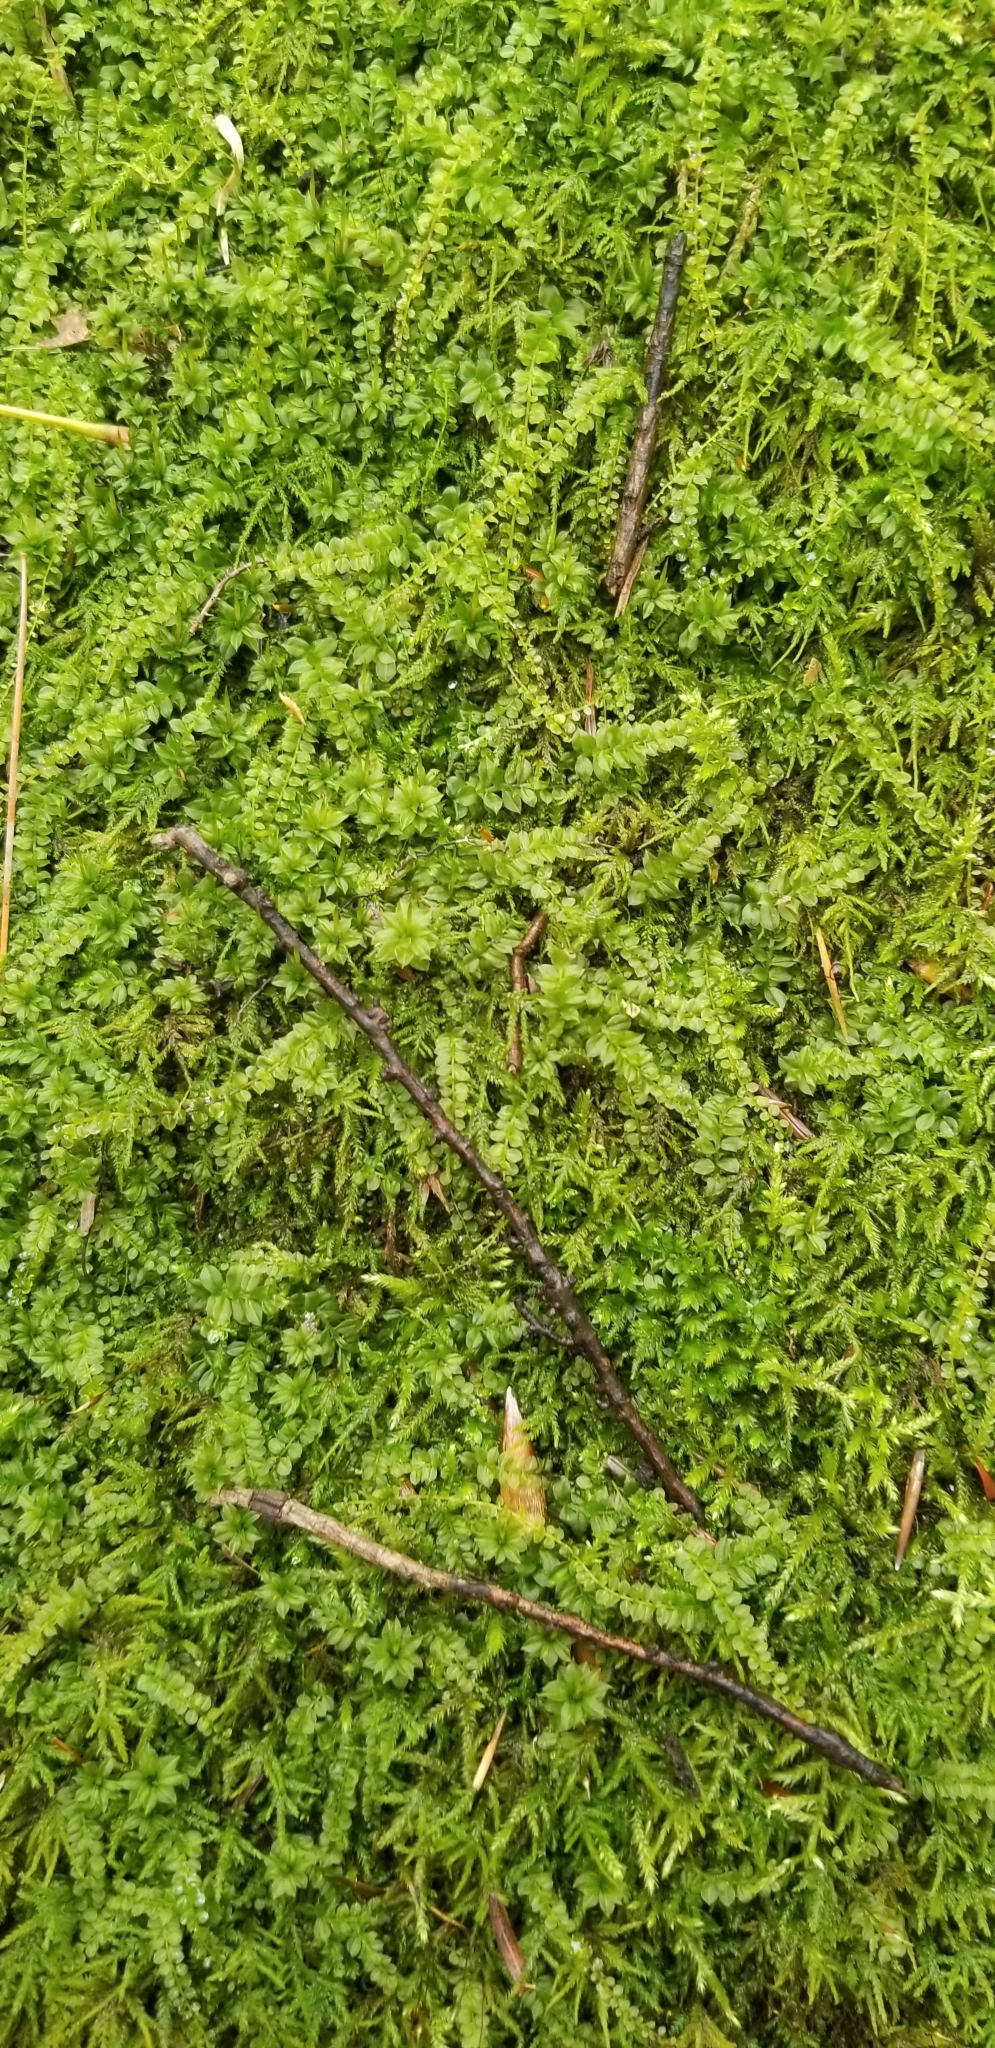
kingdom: Plantae
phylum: Bryophyta
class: Bryopsida
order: Bryales
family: Mniaceae
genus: Plagiomnium
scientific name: Plagiomnium cuspidatum
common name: Woodsy leafy moss
